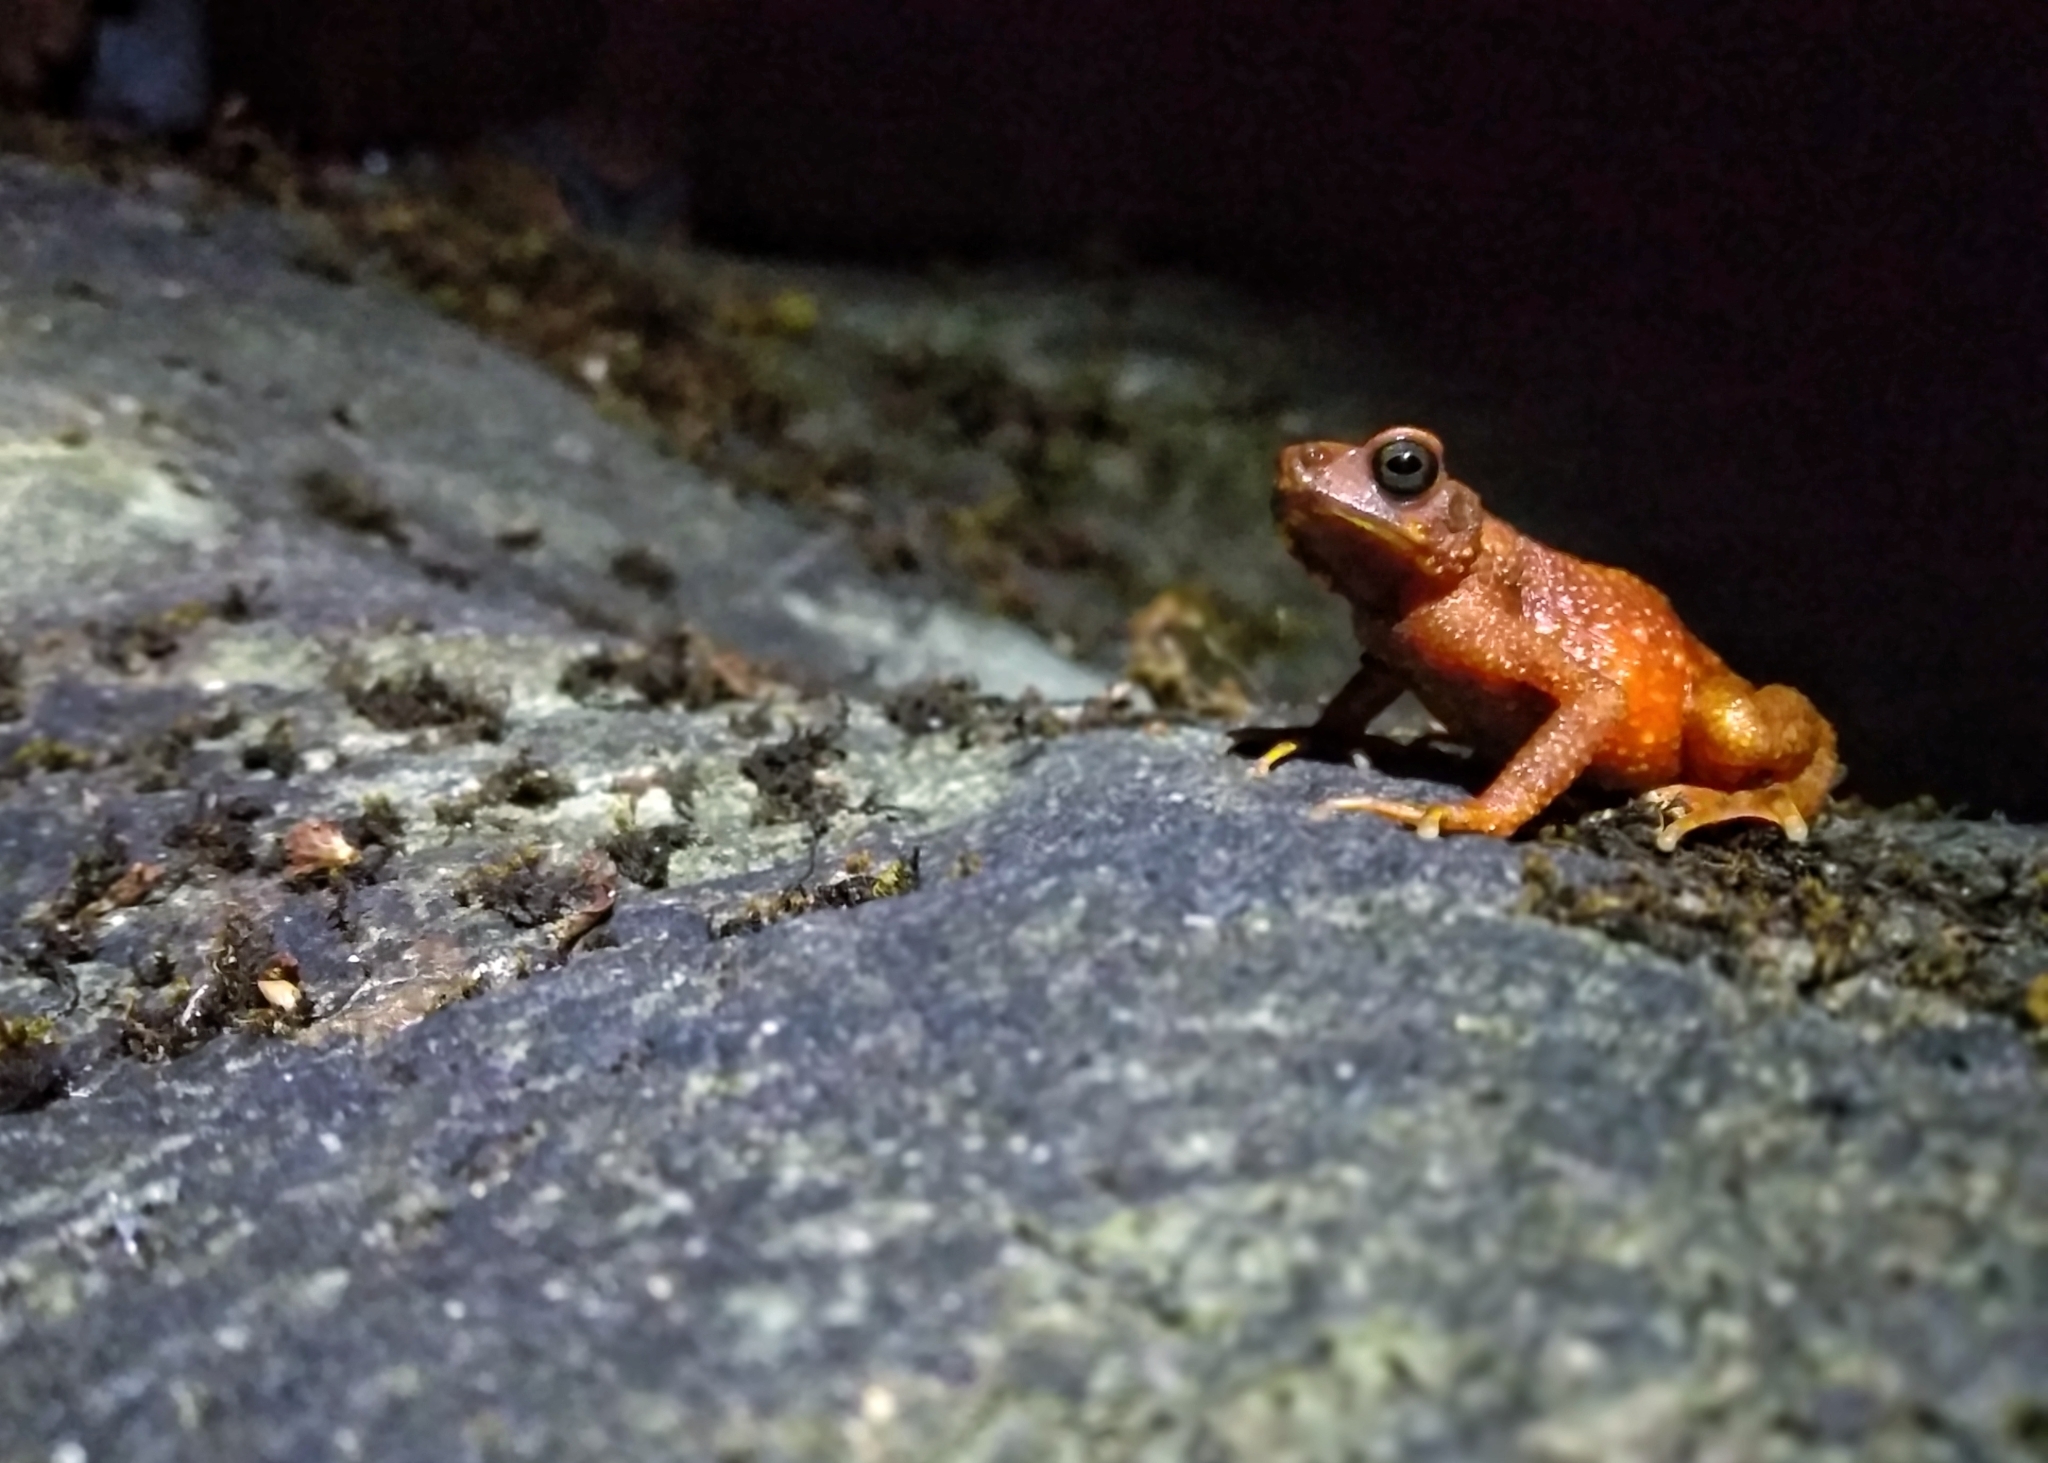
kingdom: Animalia
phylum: Chordata
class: Amphibia
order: Anura
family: Bufonidae
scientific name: Bufonidae
